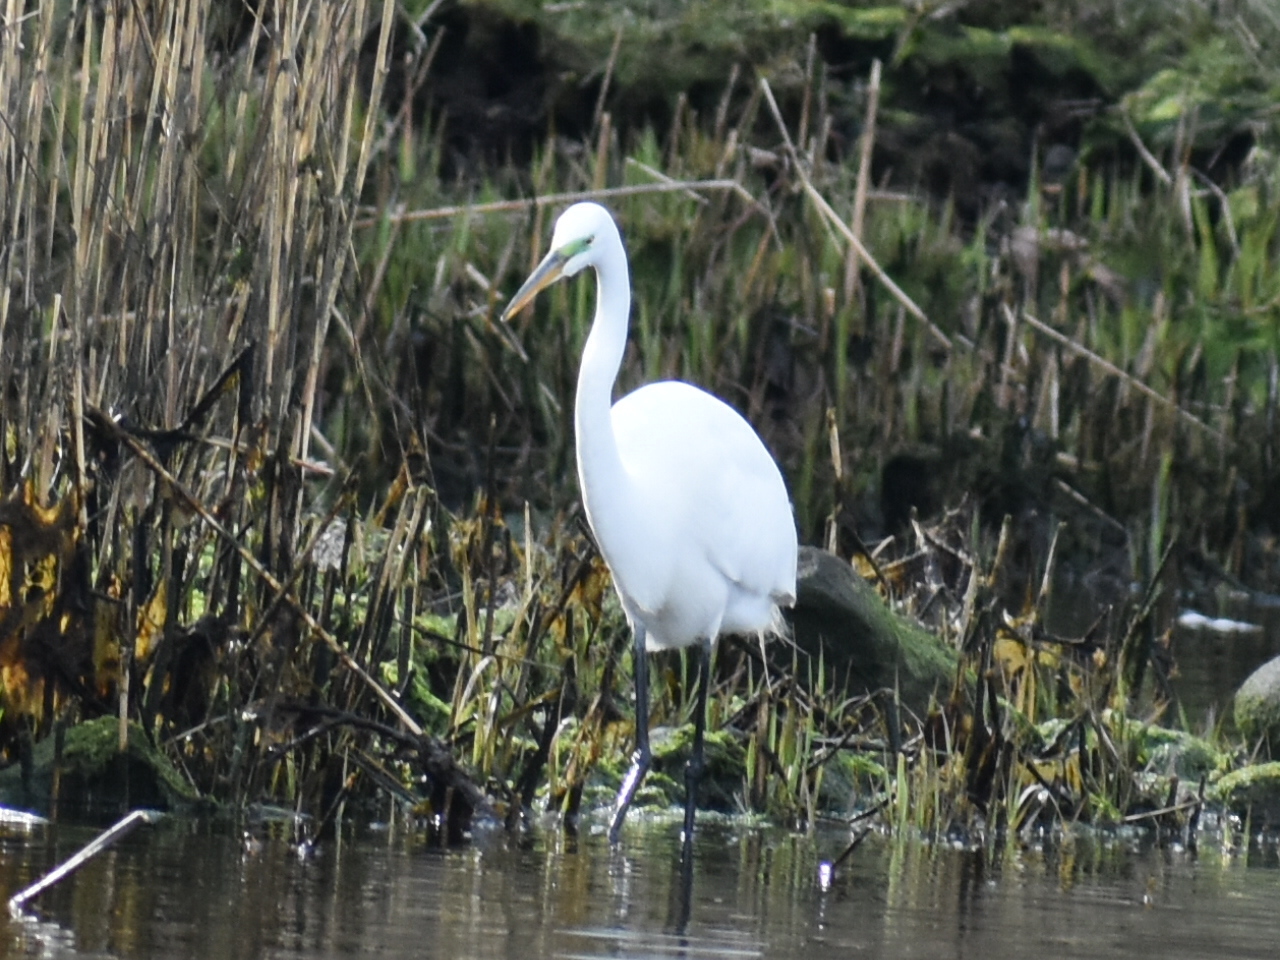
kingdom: Animalia
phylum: Chordata
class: Aves
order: Pelecaniformes
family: Ardeidae
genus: Ardea
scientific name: Ardea alba
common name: Great egret
